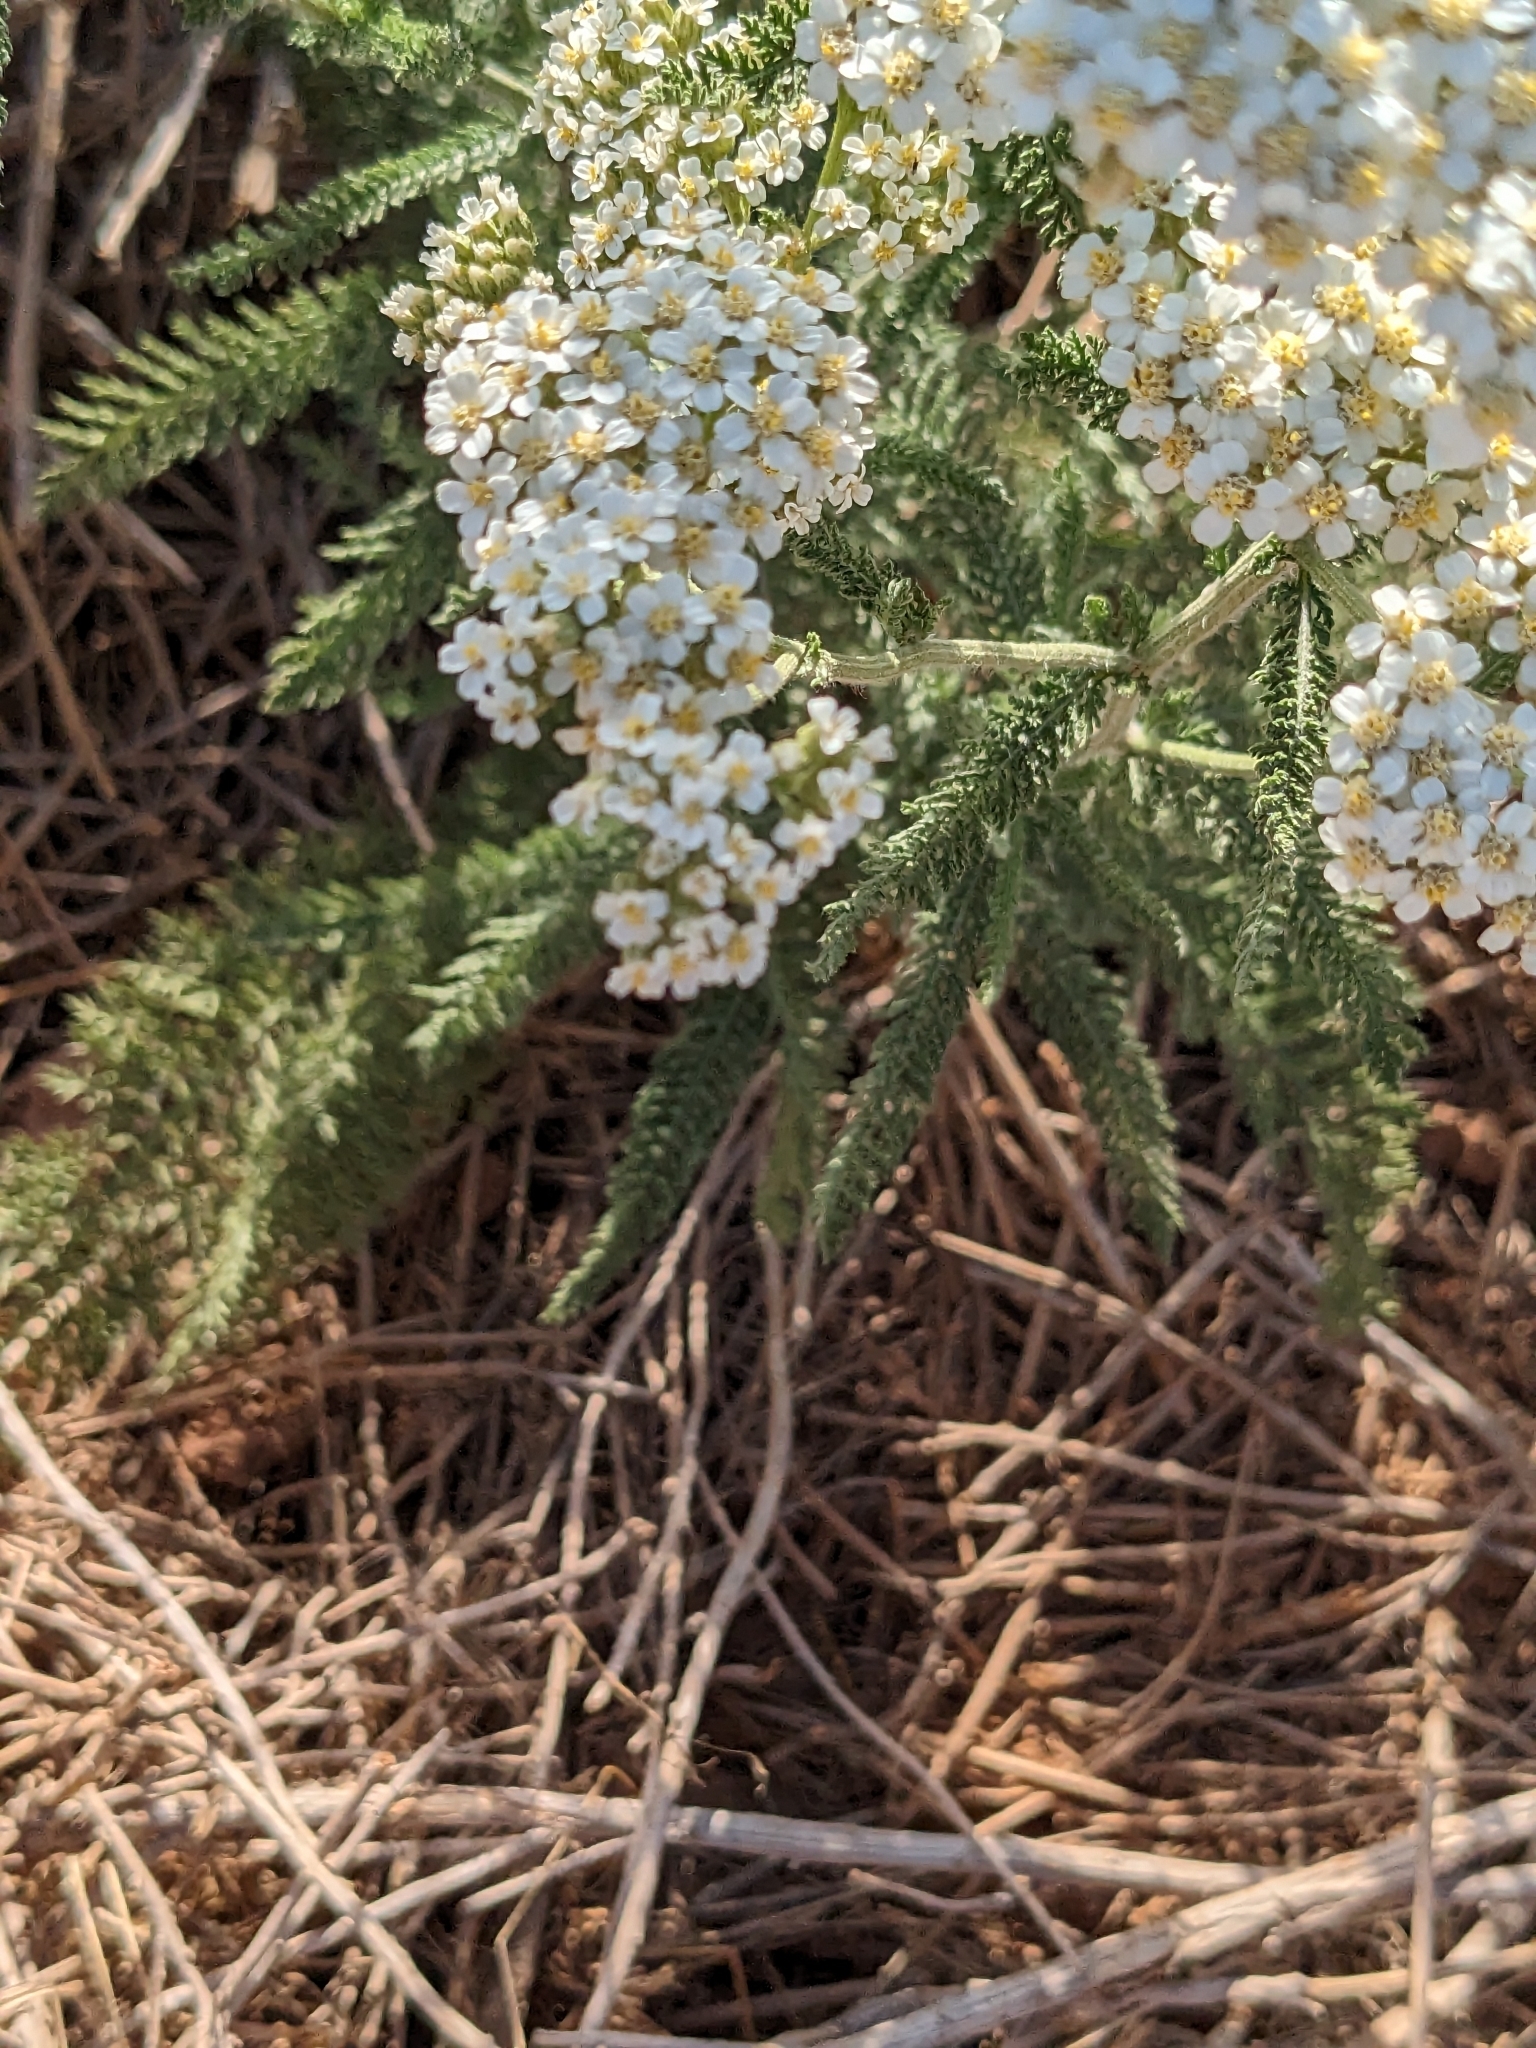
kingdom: Plantae
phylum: Tracheophyta
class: Magnoliopsida
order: Asterales
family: Asteraceae
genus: Achillea
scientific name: Achillea millefolium
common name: Yarrow
